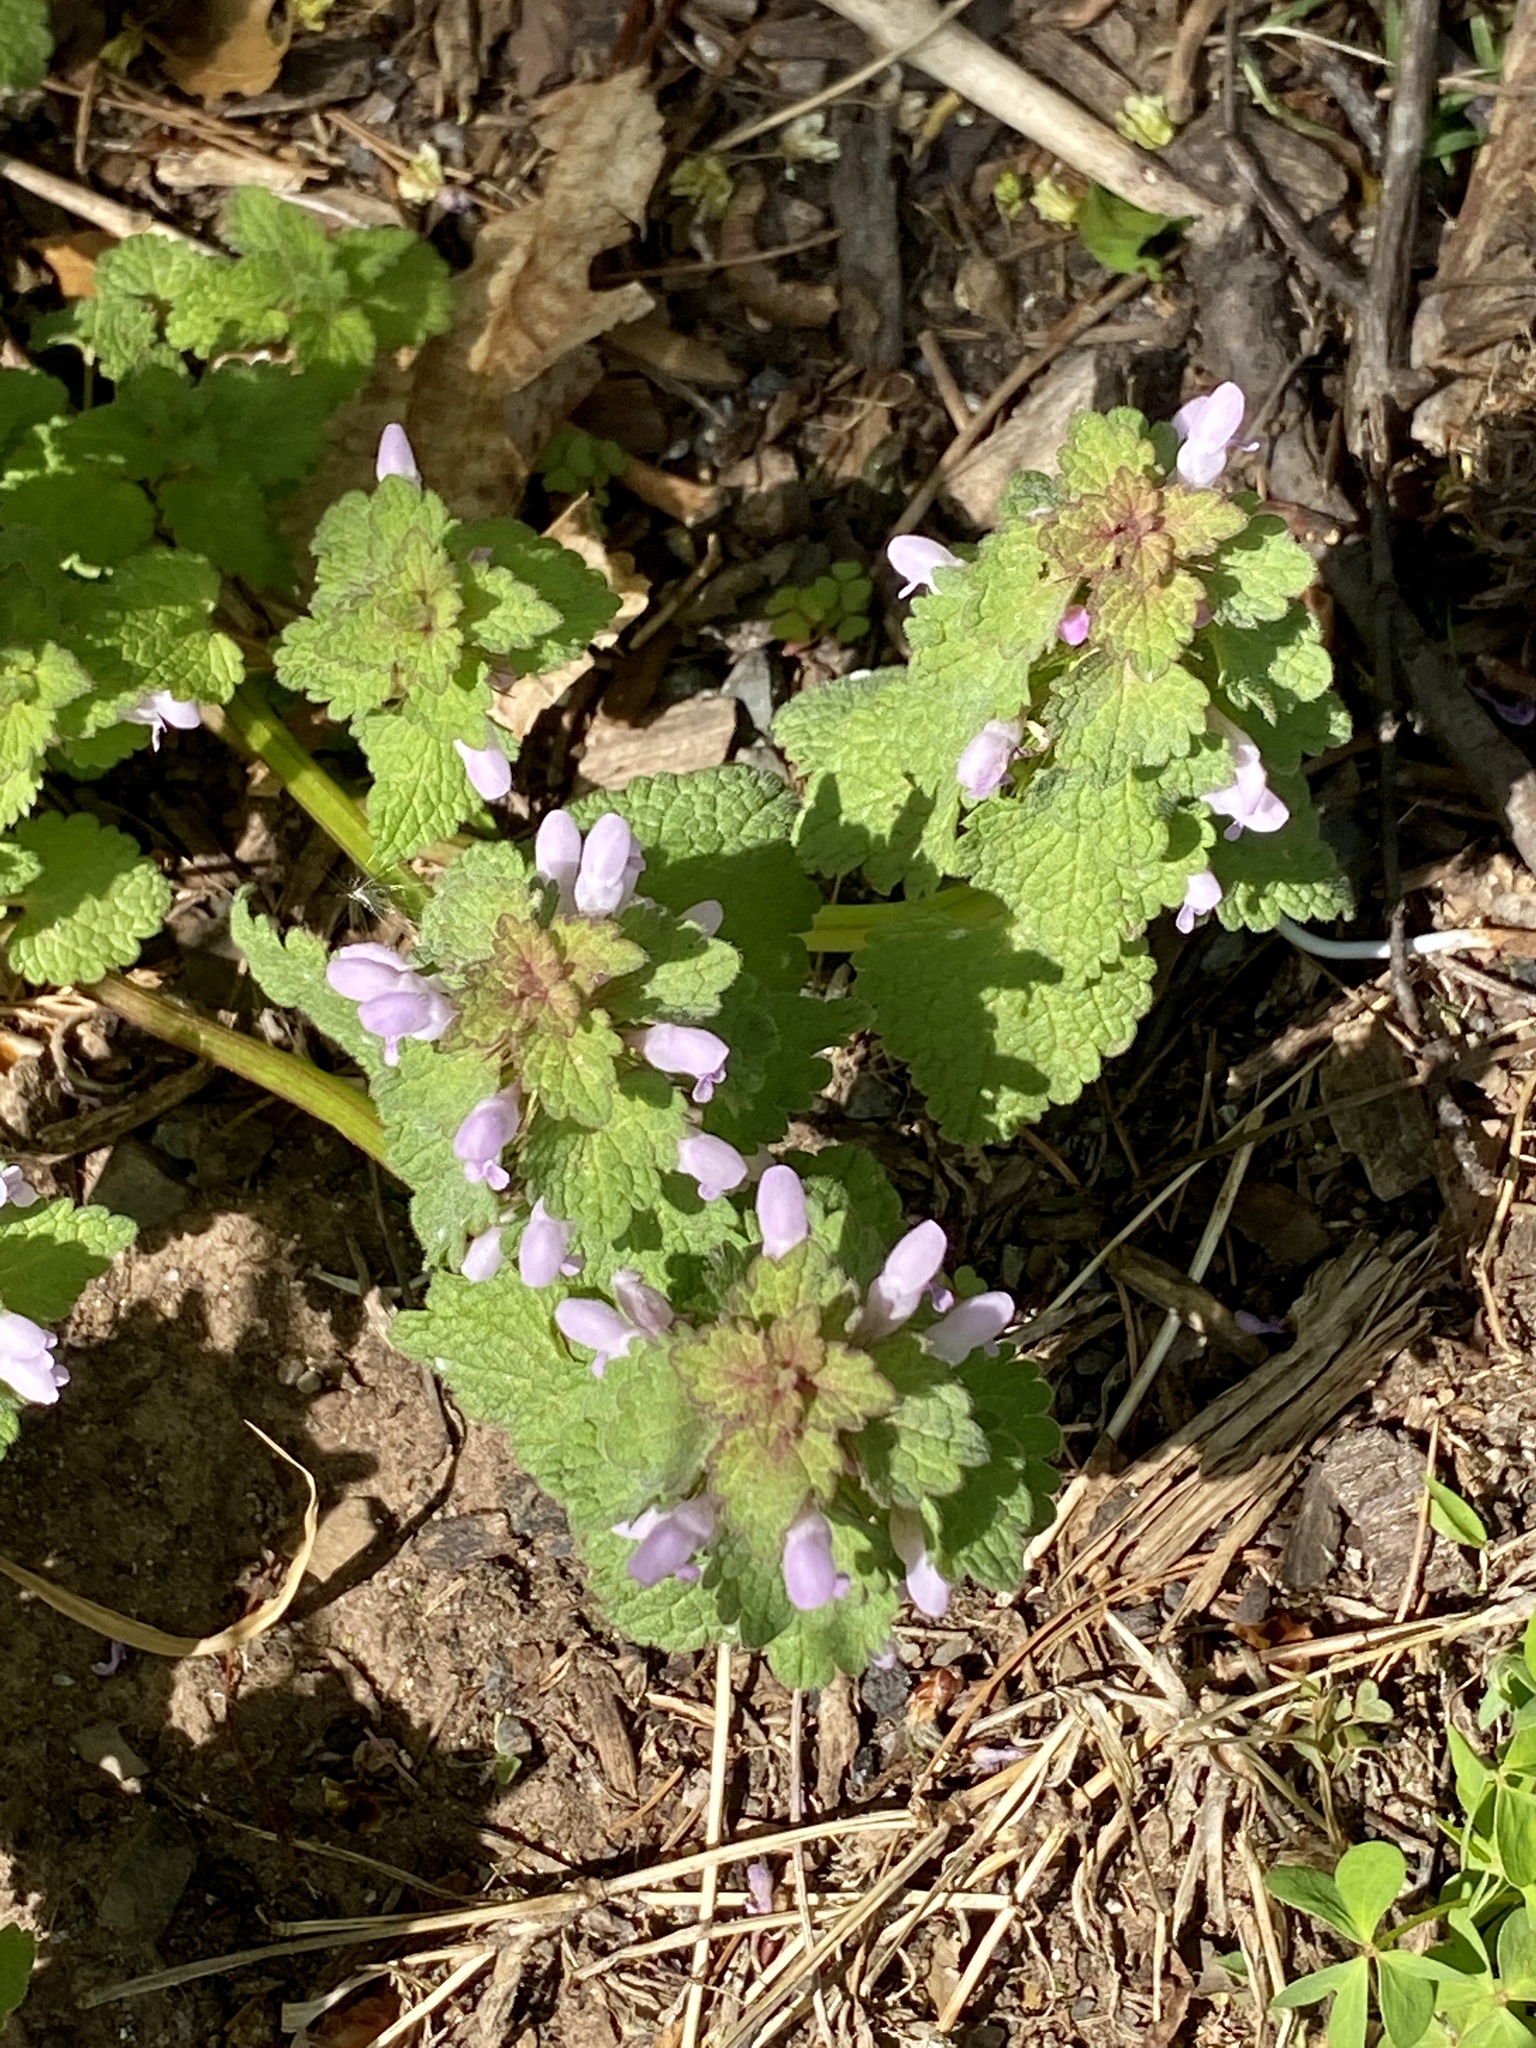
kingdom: Plantae
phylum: Tracheophyta
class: Magnoliopsida
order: Lamiales
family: Lamiaceae
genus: Lamium
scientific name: Lamium purpureum
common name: Red dead-nettle
